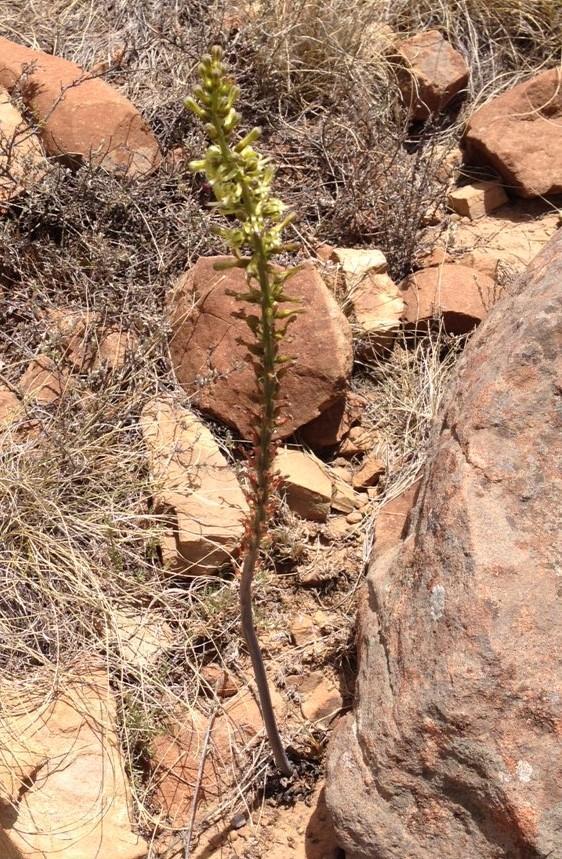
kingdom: Plantae
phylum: Tracheophyta
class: Liliopsida
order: Asparagales
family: Asparagaceae
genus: Drimia
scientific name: Drimia elata
